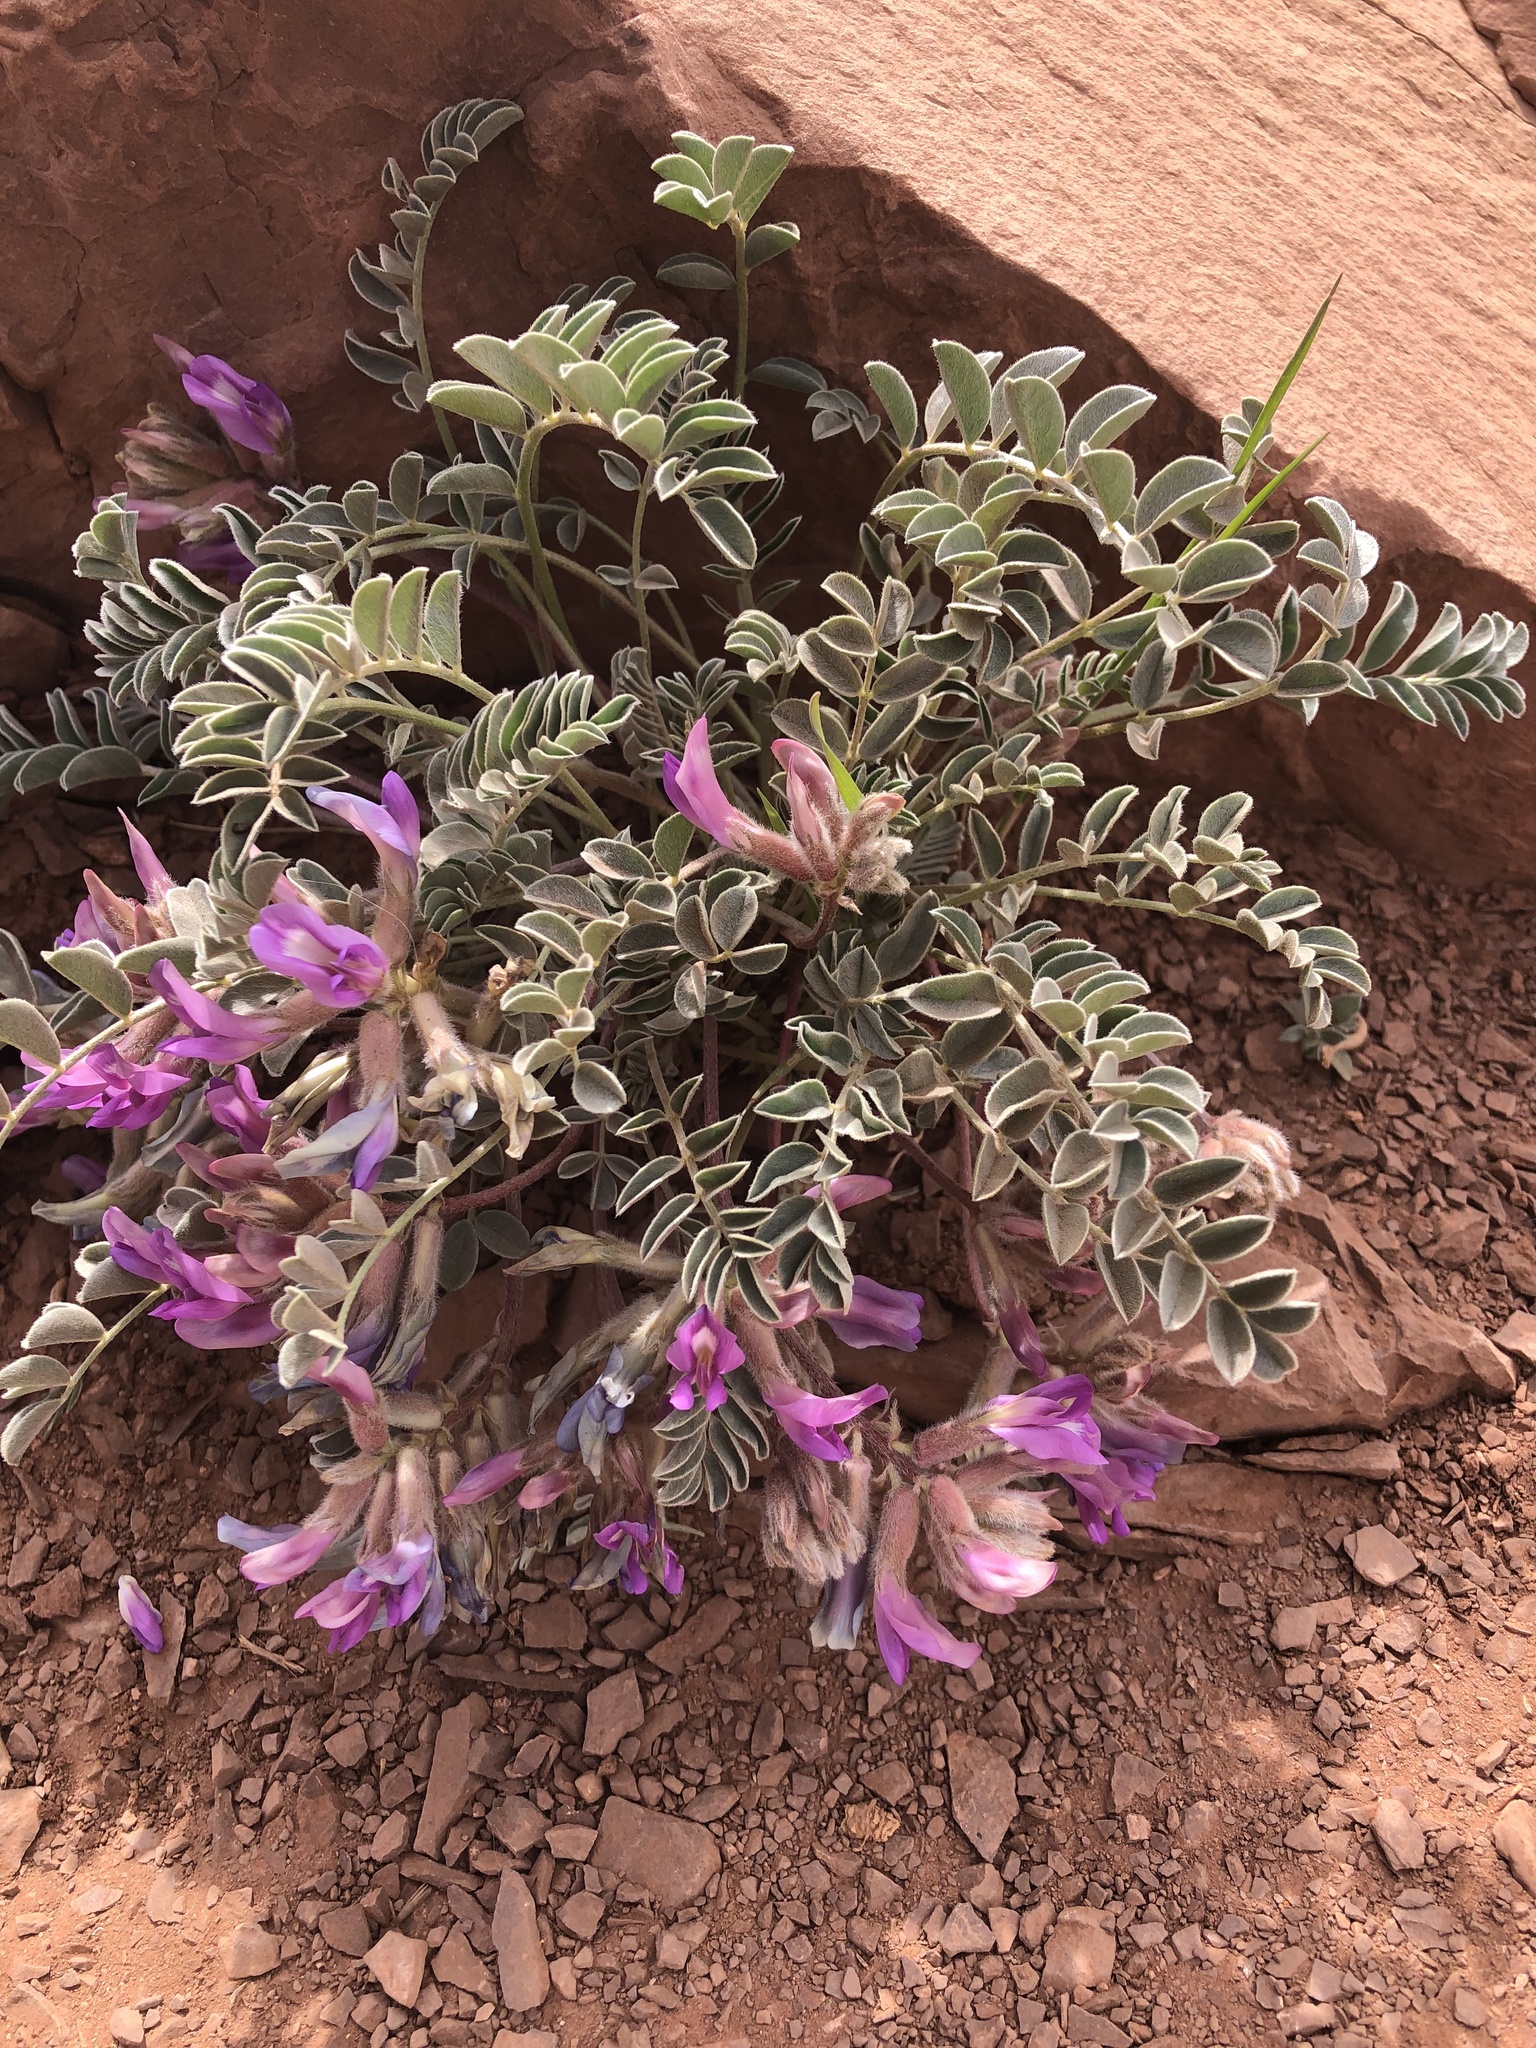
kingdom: Plantae
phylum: Tracheophyta
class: Magnoliopsida
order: Fabales
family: Fabaceae
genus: Astragalus
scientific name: Astragalus shortianus
